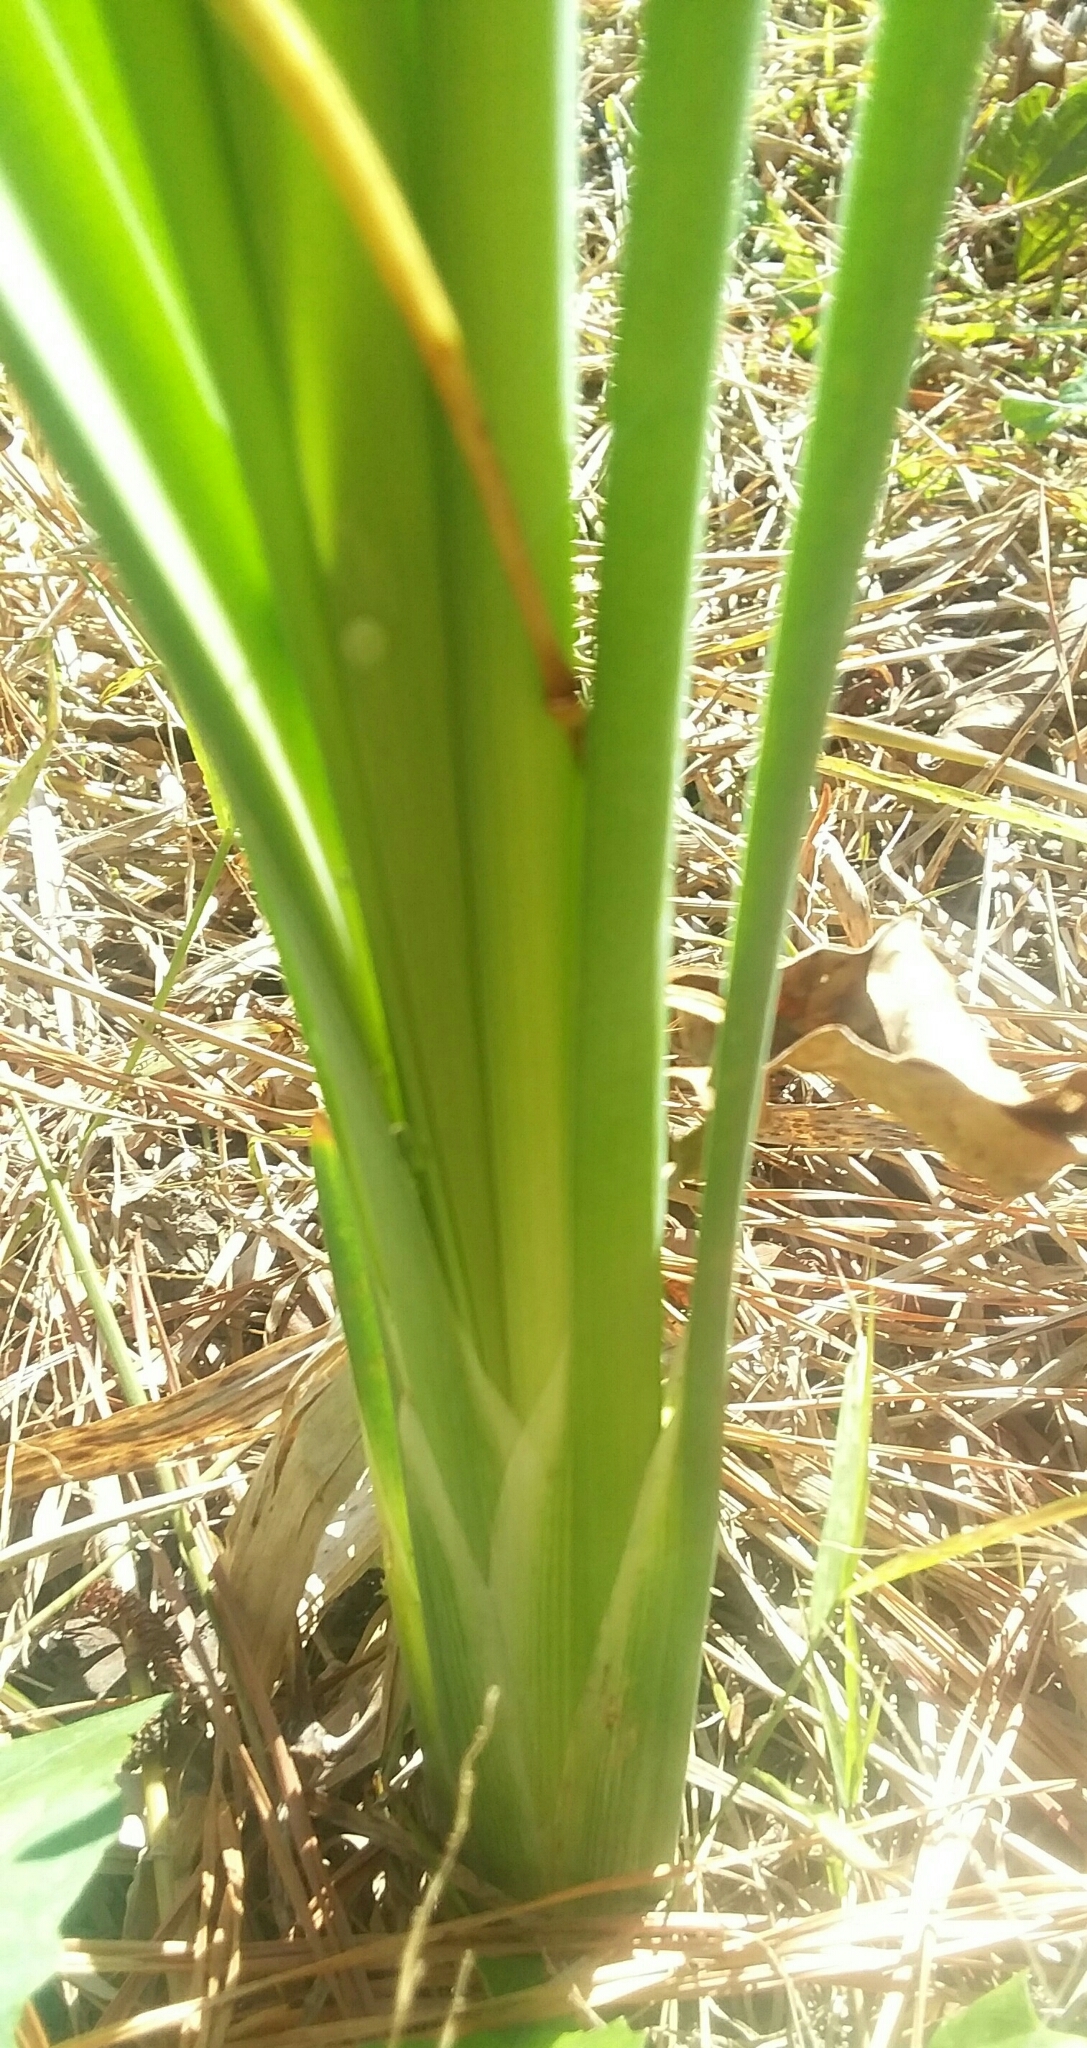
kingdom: Plantae
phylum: Tracheophyta
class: Liliopsida
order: Poales
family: Typhaceae
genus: Typha
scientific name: Typha latifolia
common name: Broadleaf cattail
